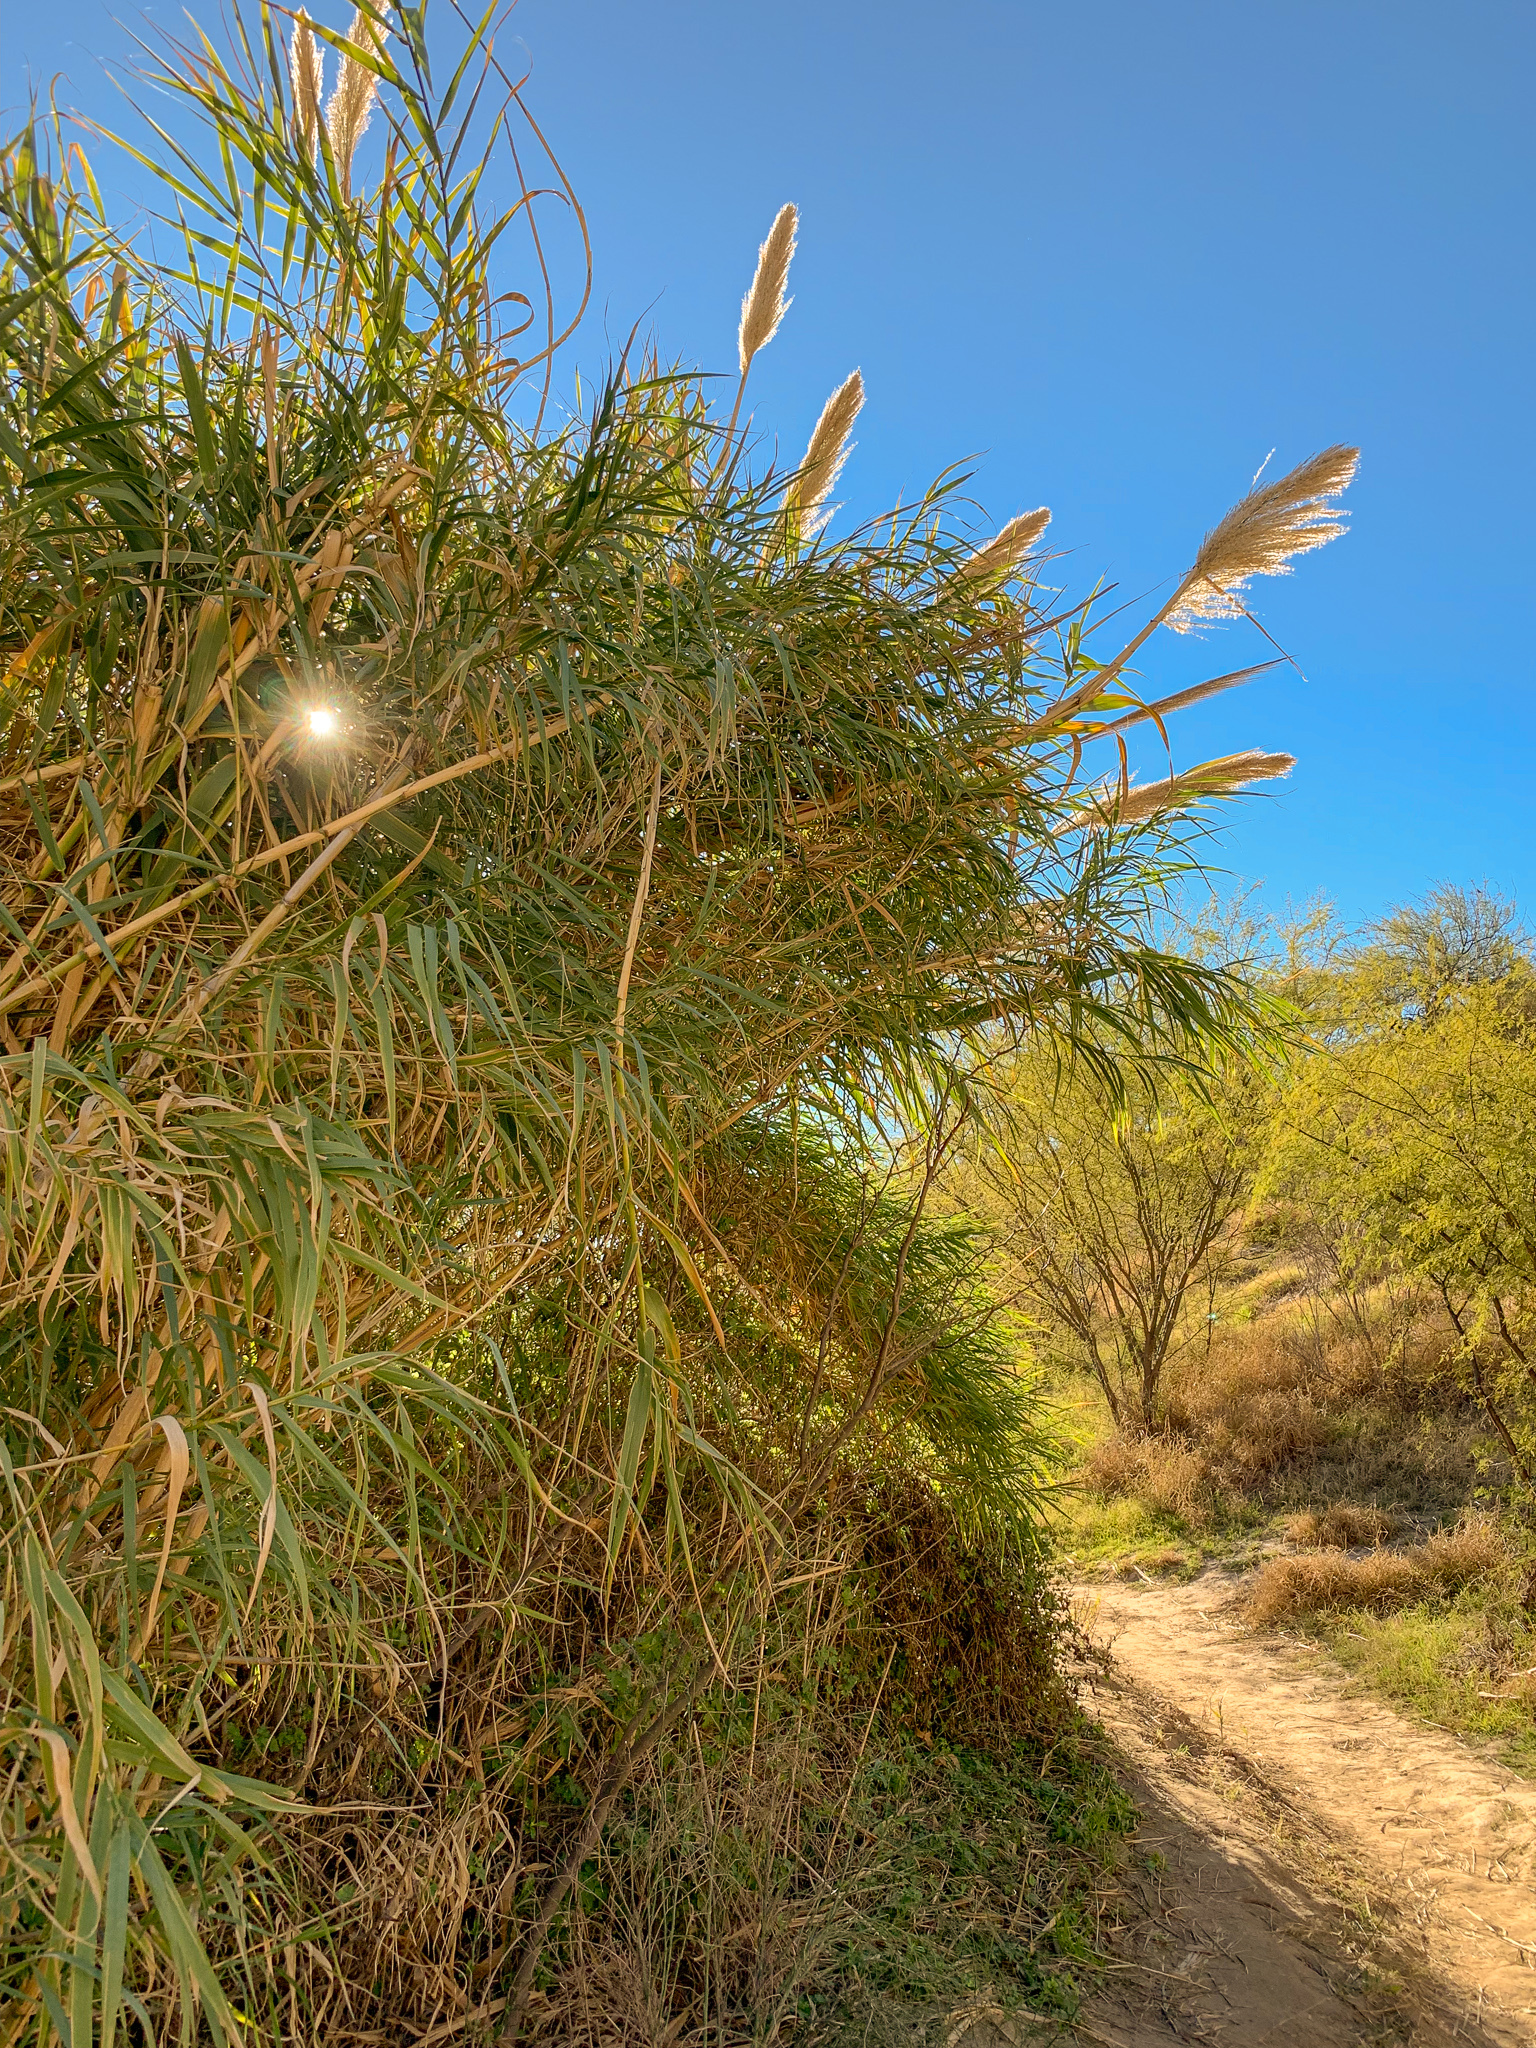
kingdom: Plantae
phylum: Tracheophyta
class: Liliopsida
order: Poales
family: Poaceae
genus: Arundo
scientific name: Arundo donax
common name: Giant reed
